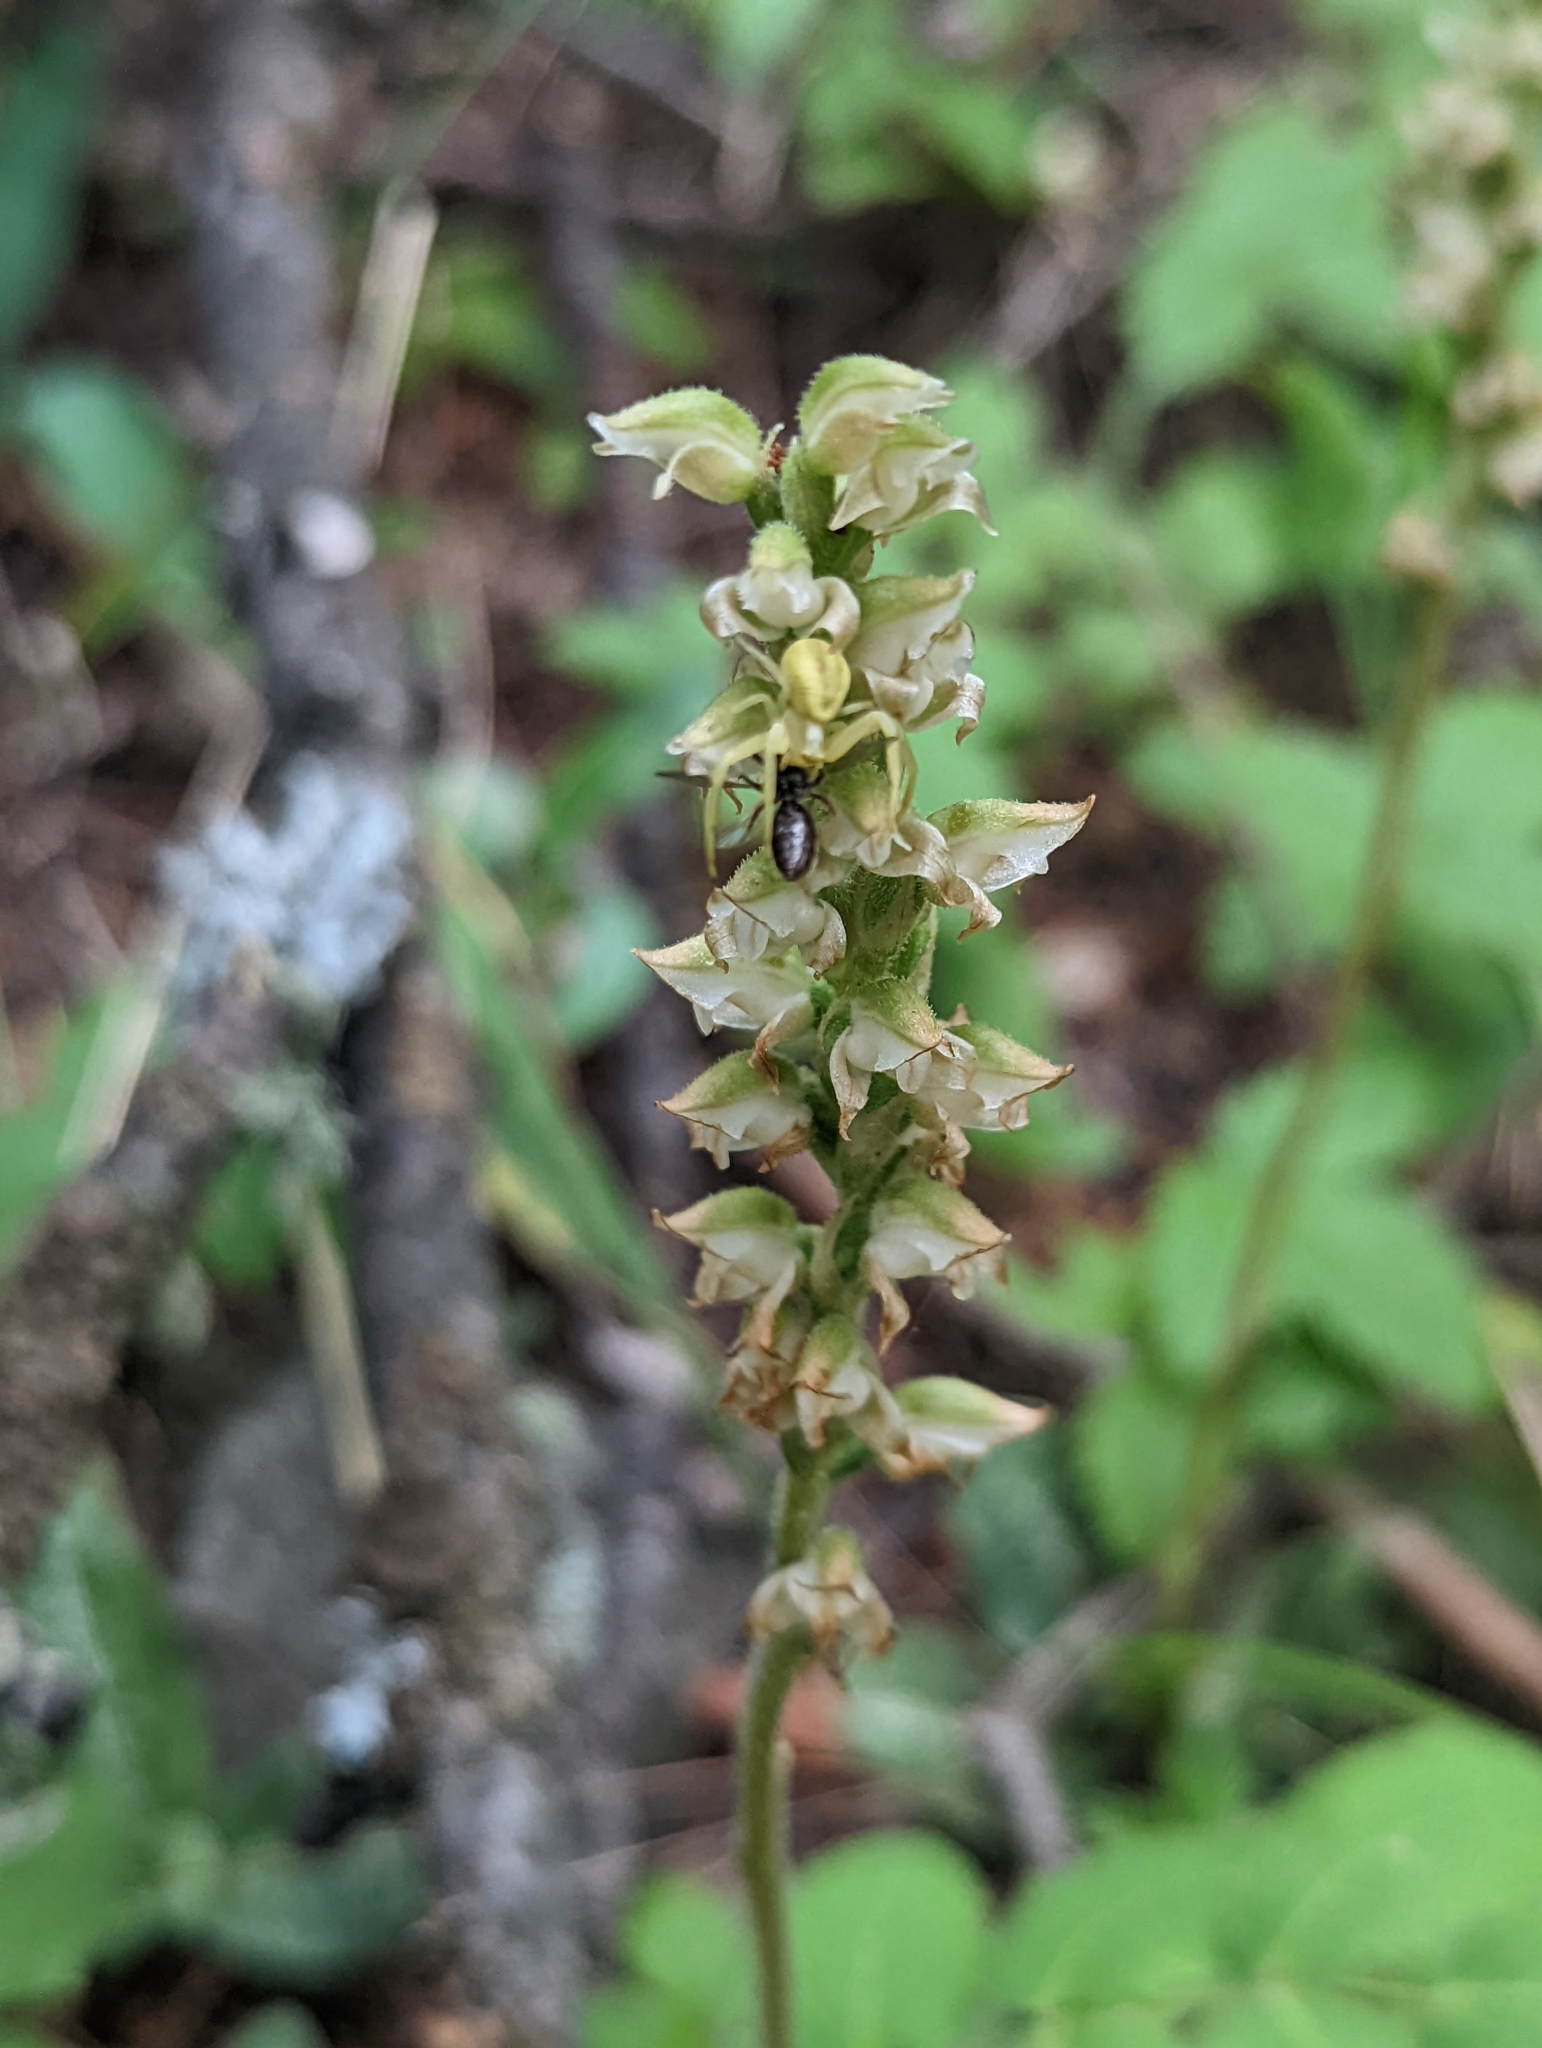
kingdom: Plantae
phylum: Tracheophyta
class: Liliopsida
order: Asparagales
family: Orchidaceae
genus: Goodyera
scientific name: Goodyera oblongifolia
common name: Giant rattlesnake-plantain
